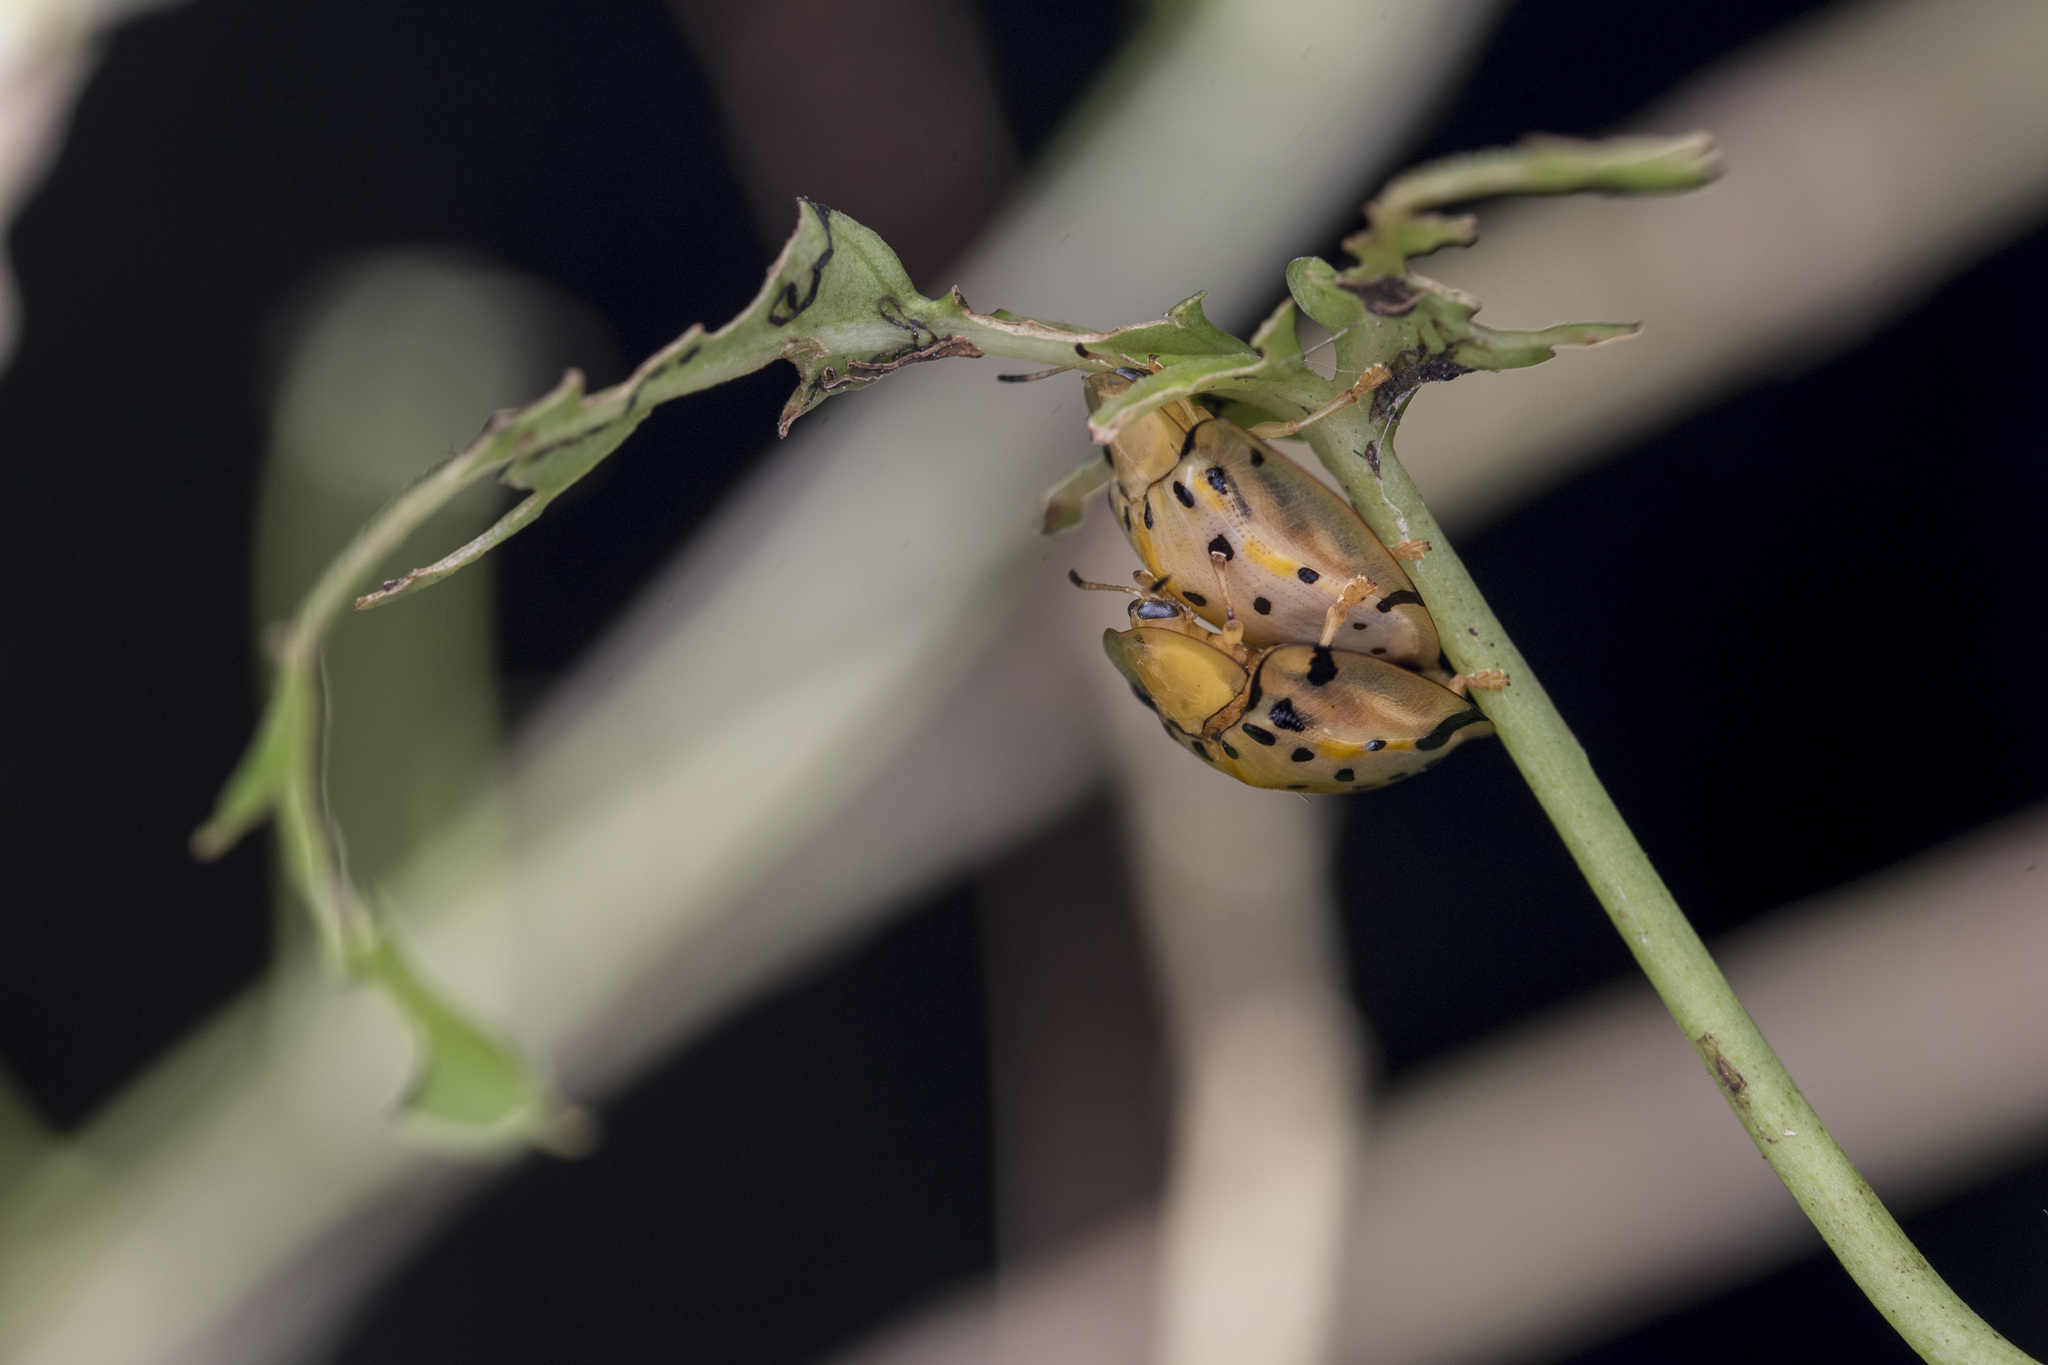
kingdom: Animalia
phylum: Arthropoda
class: Insecta
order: Coleoptera
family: Chrysomelidae
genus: Aspidimorpha
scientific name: Aspidimorpha miliaris
